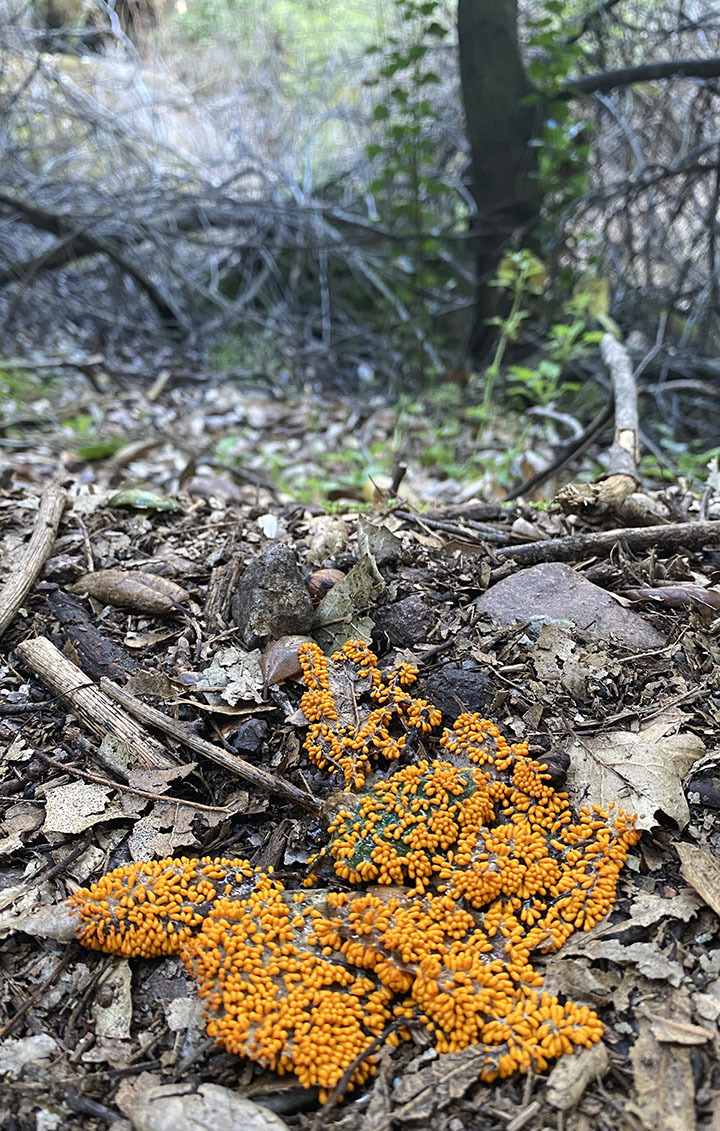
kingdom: Protozoa
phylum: Mycetozoa
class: Myxomycetes
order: Physarales
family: Physaraceae
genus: Leocarpus
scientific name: Leocarpus fragilis
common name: Insect-egg slime
